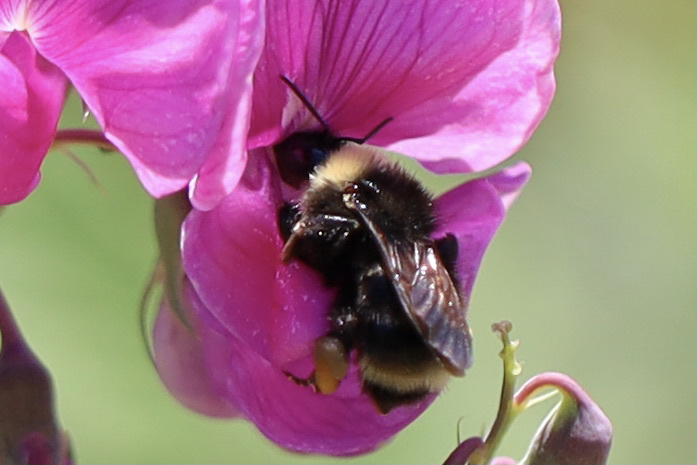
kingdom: Animalia
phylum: Arthropoda
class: Insecta
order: Hymenoptera
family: Apidae
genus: Bombus
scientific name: Bombus californicus
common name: California bumble bee
